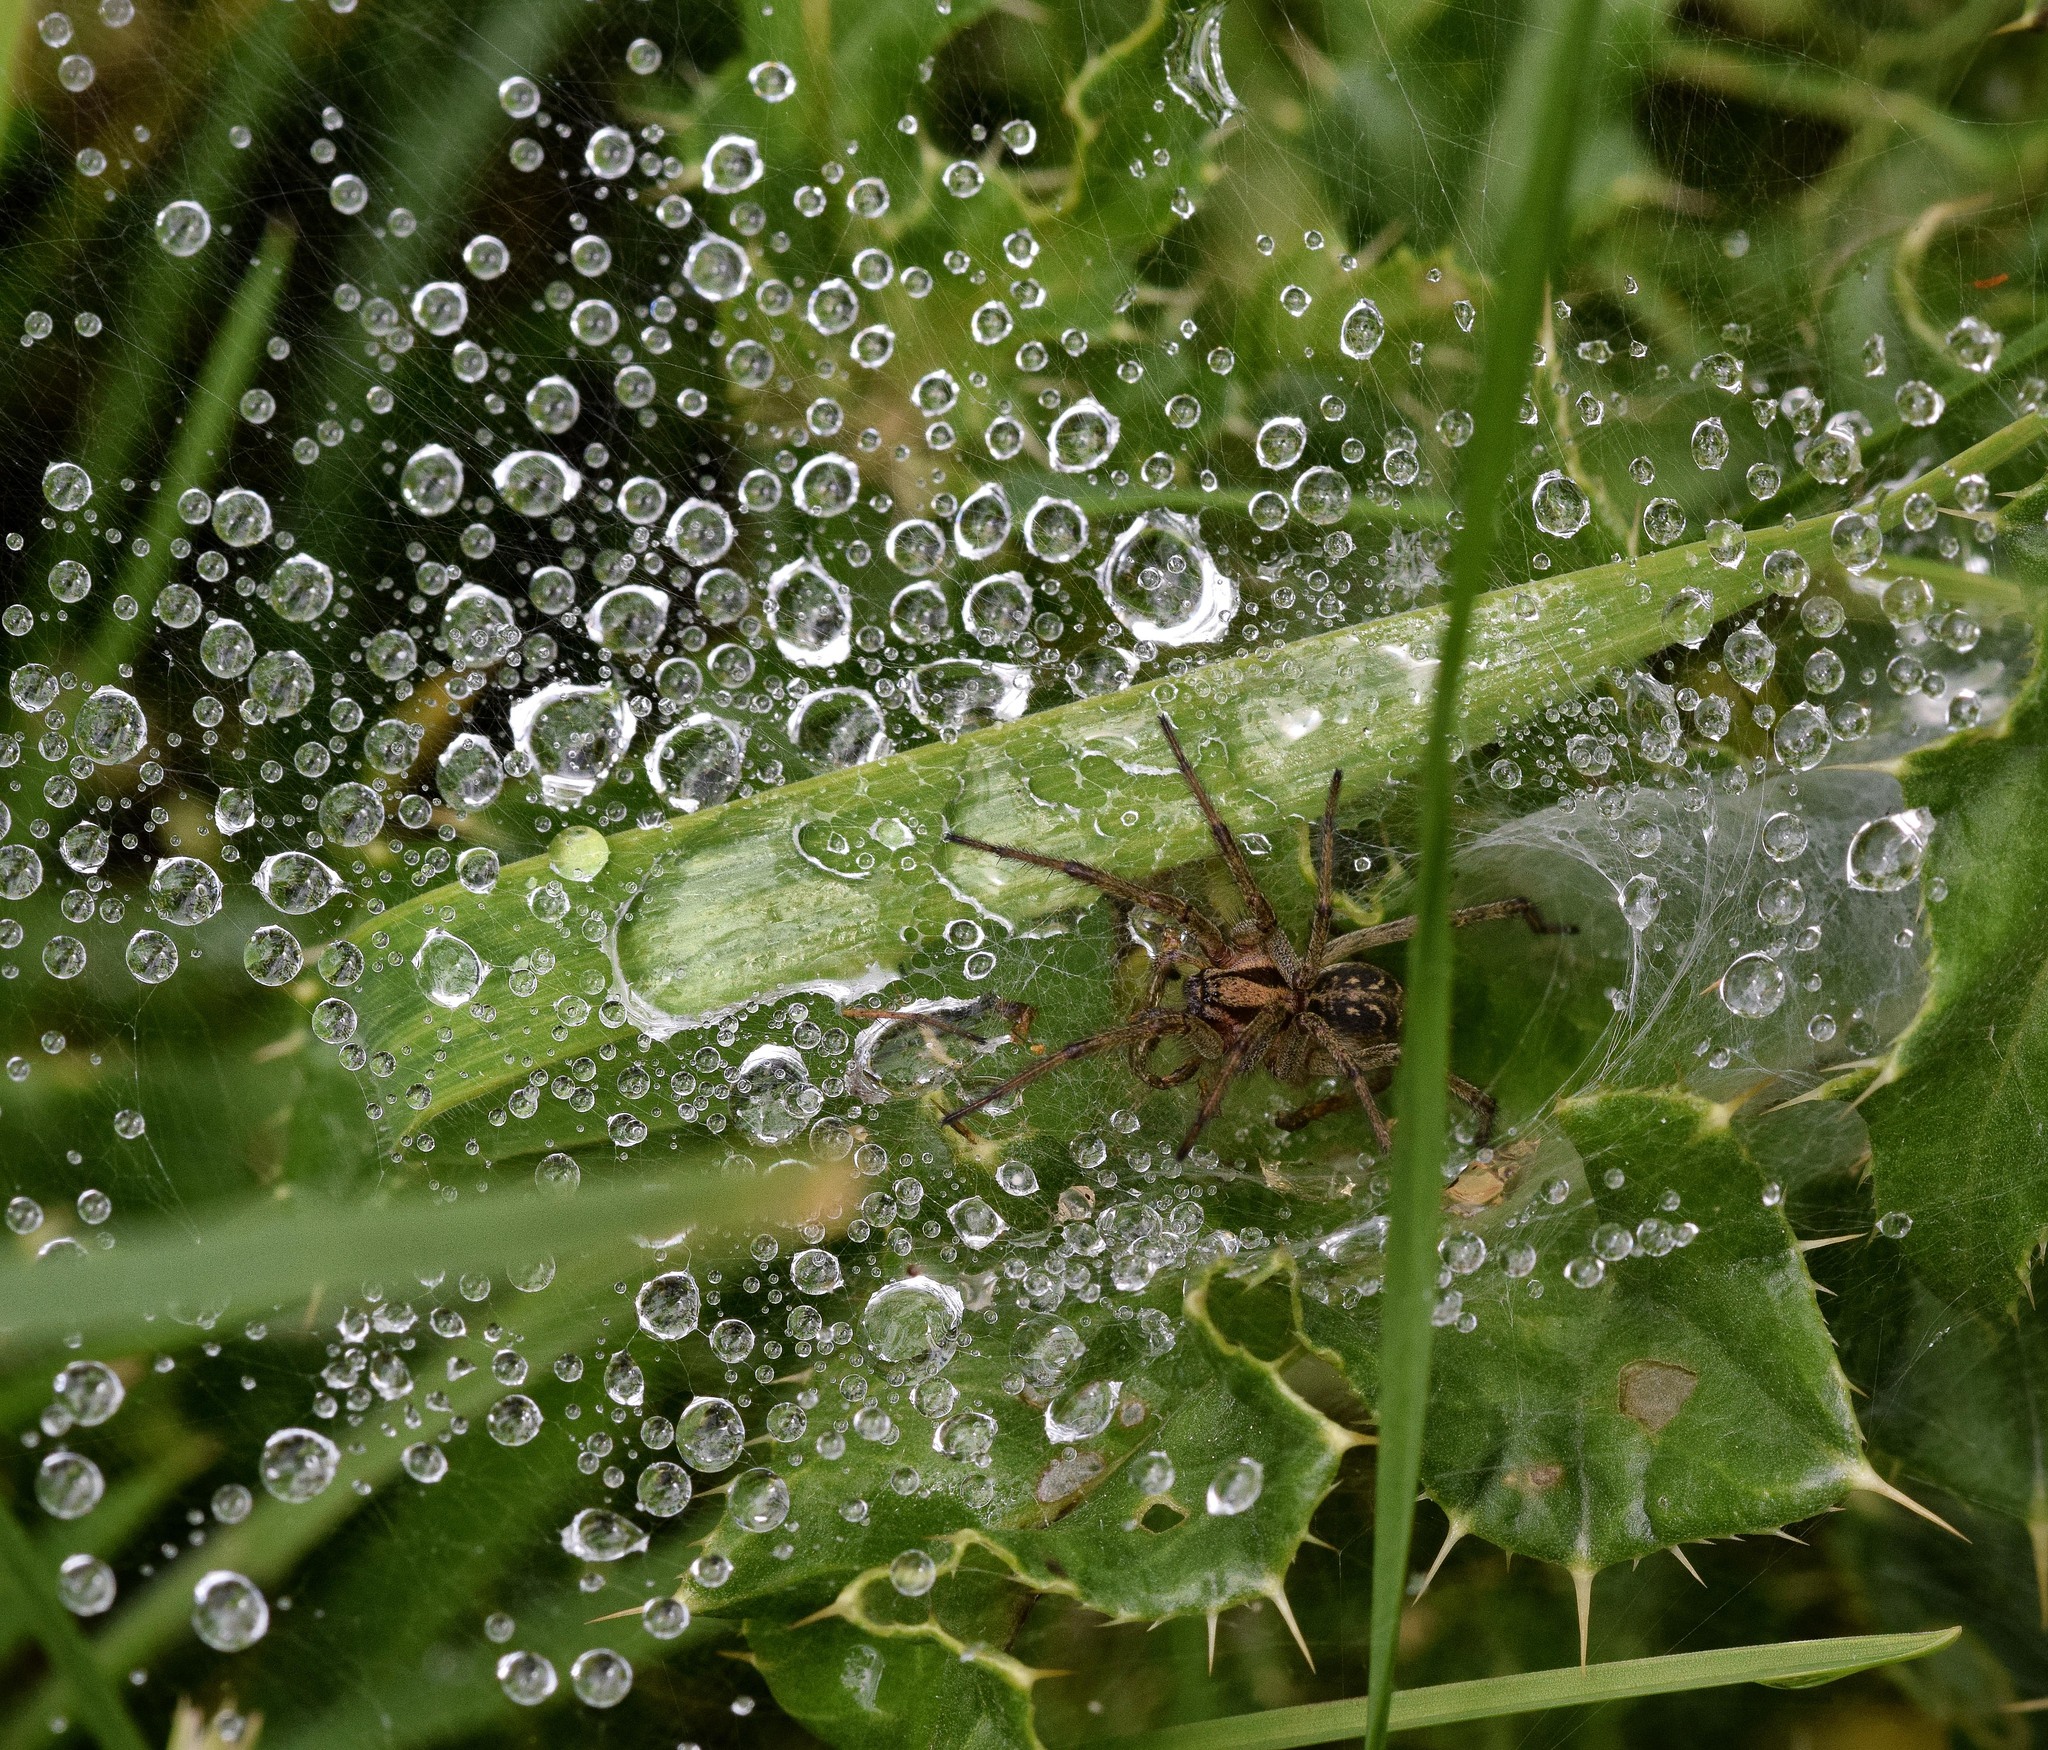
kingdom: Animalia
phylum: Arthropoda
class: Arachnida
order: Araneae
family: Agelenidae
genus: Agelena
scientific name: Agelena labyrinthica
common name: Labyrinth spider
